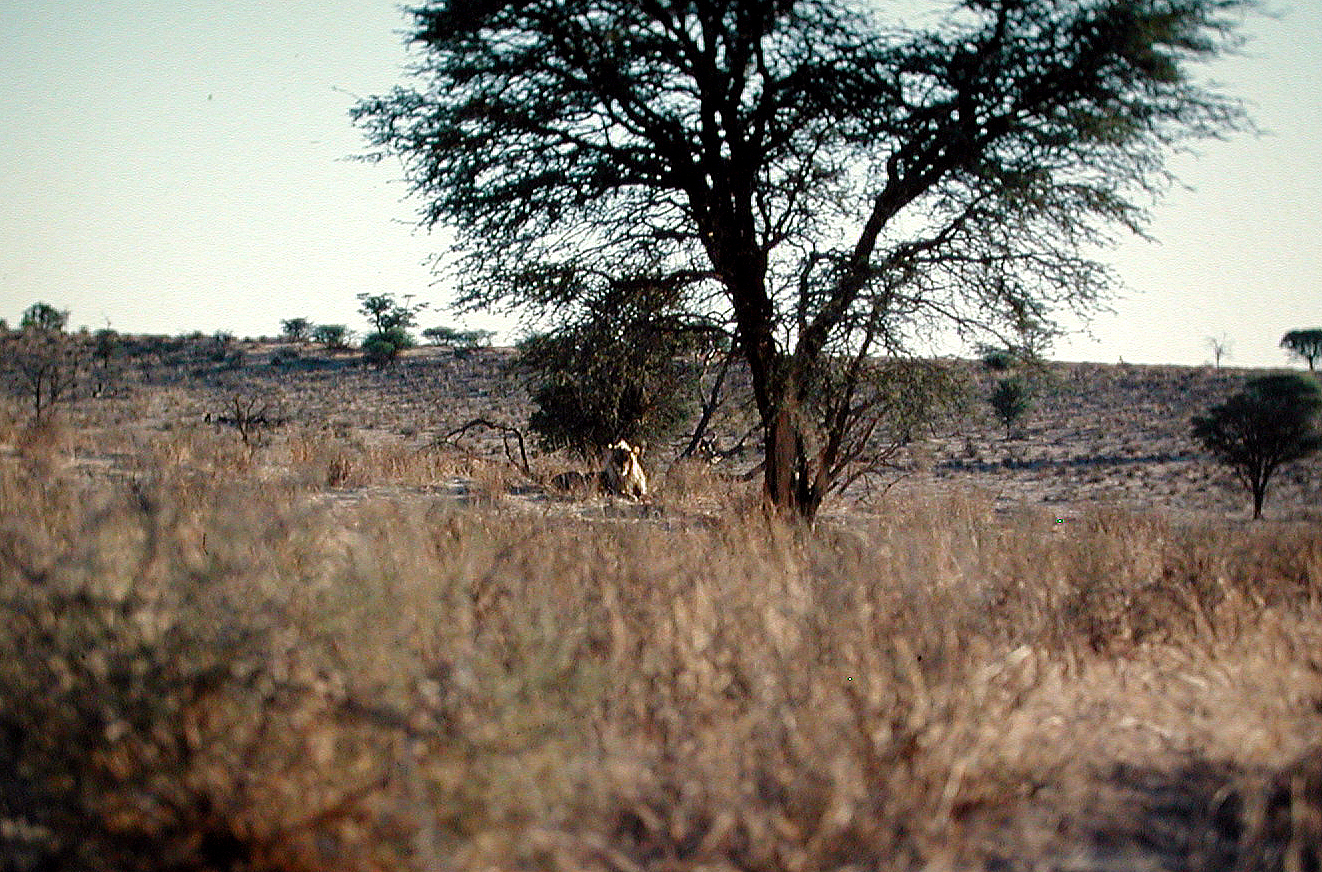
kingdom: Animalia
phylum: Chordata
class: Mammalia
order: Carnivora
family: Felidae
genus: Panthera
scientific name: Panthera leo
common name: Lion
